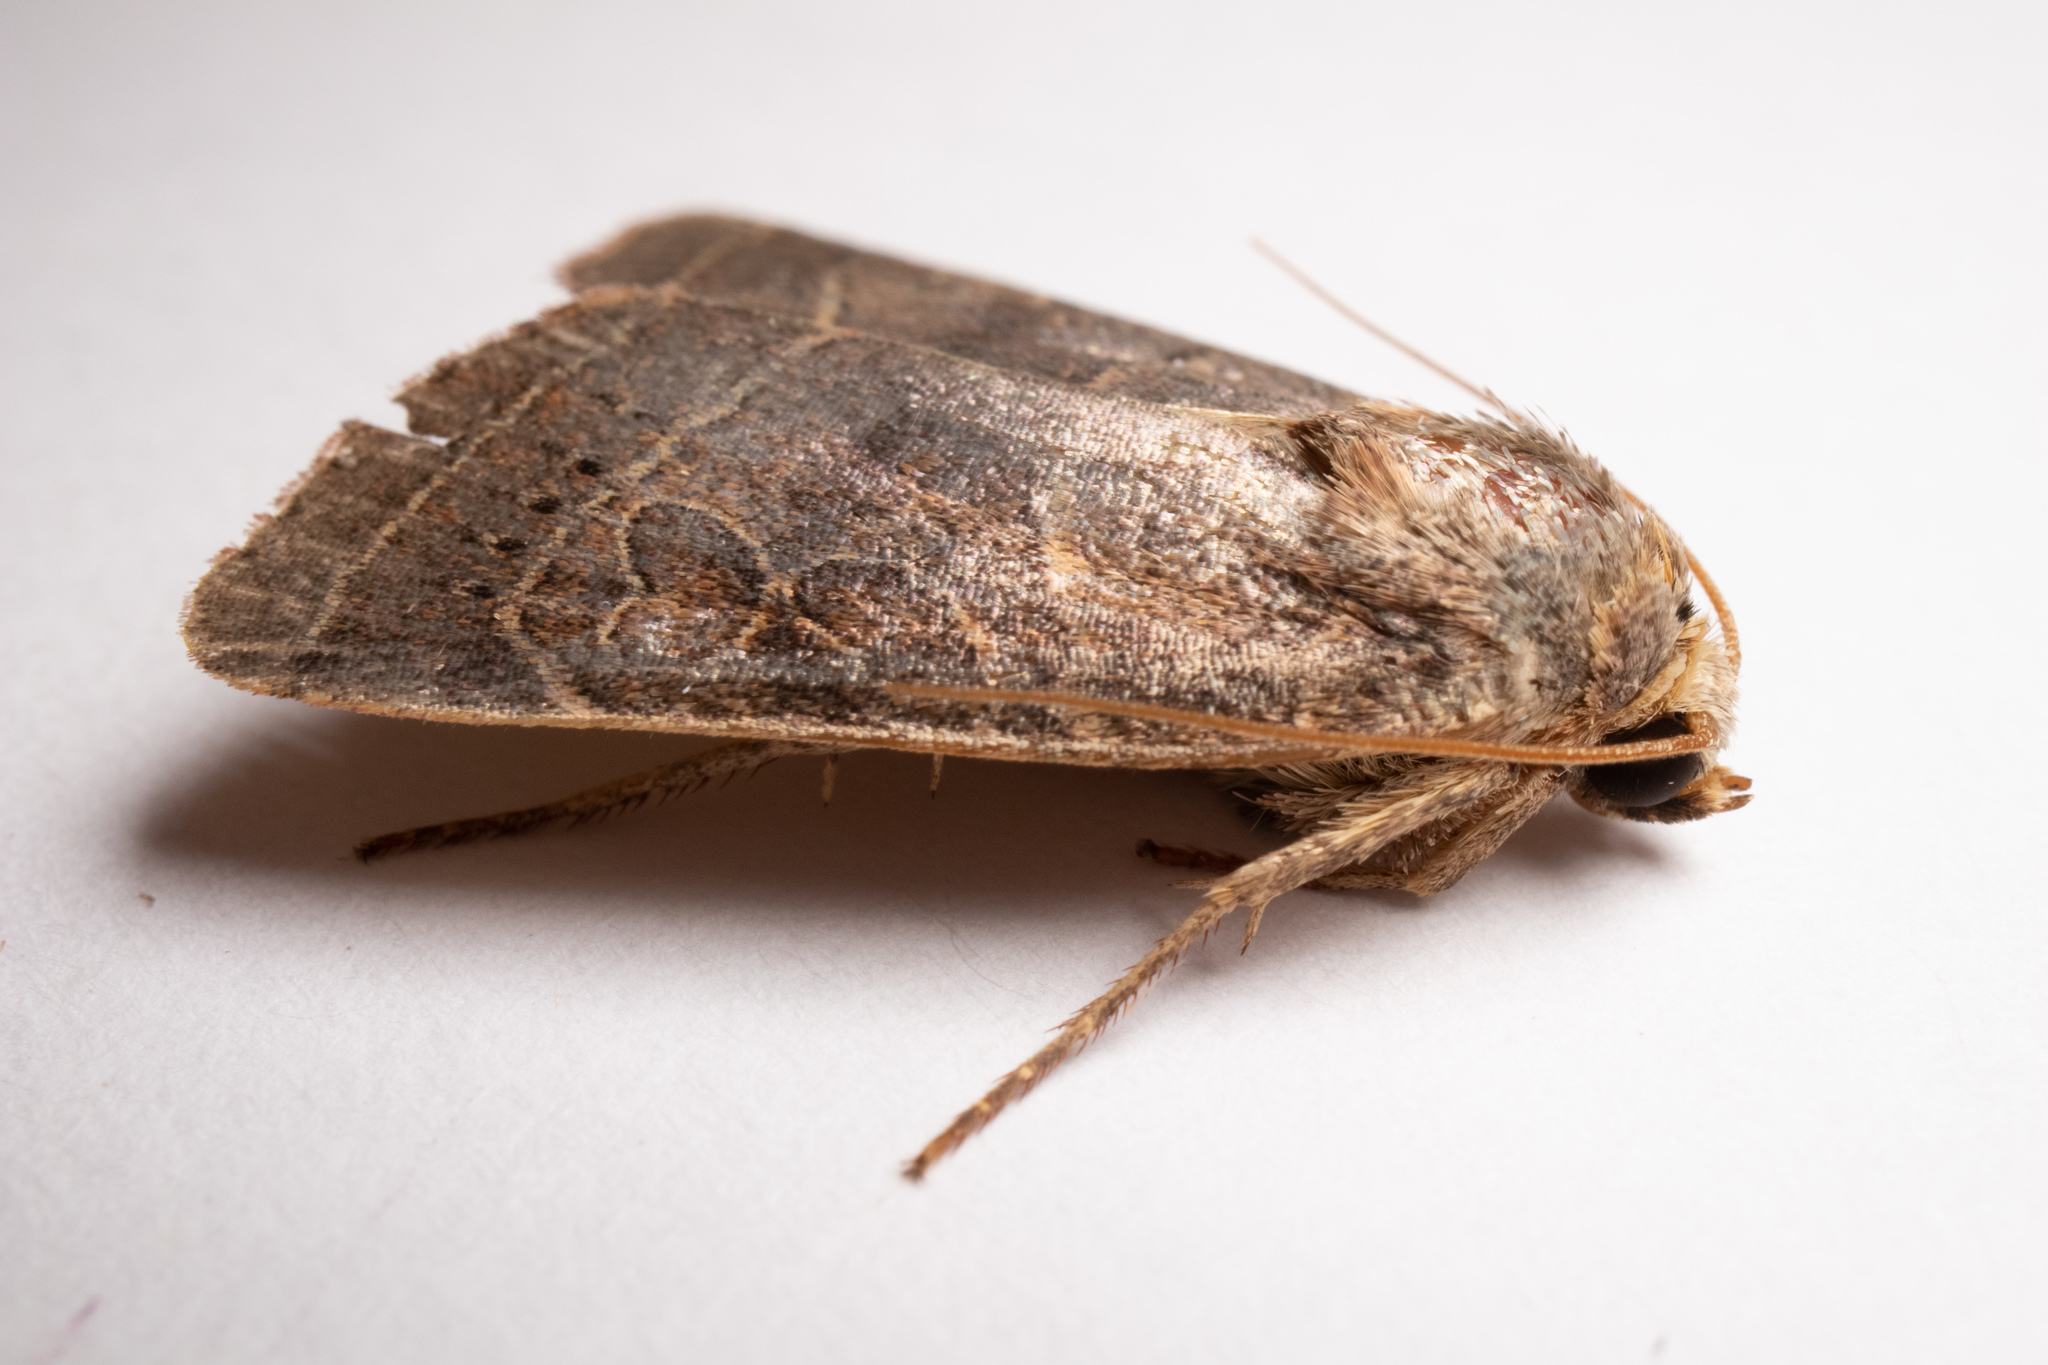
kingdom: Animalia
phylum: Arthropoda
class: Insecta
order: Lepidoptera
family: Noctuidae
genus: Orthodes
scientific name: Orthodes majuscula
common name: Rustic quaker
